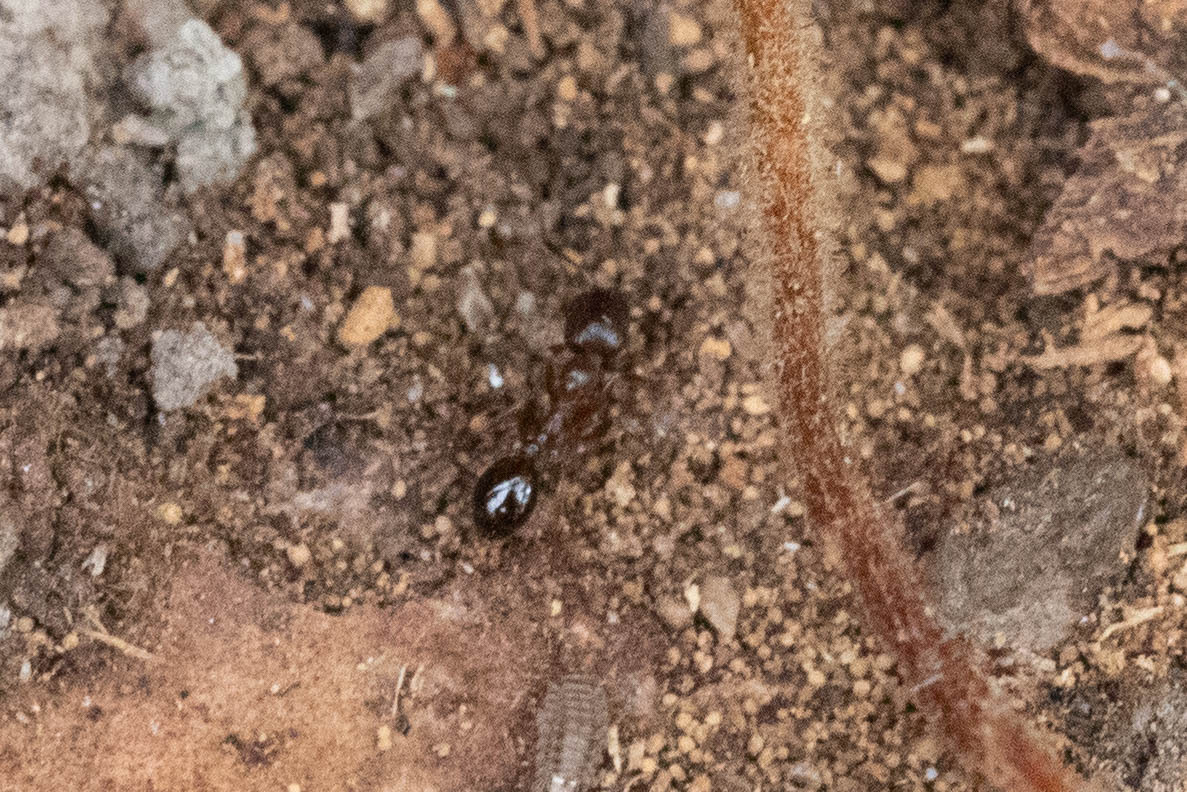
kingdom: Animalia
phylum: Arthropoda
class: Insecta
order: Hymenoptera
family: Formicidae
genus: Aphaenogaster
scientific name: Aphaenogaster occidentalis
